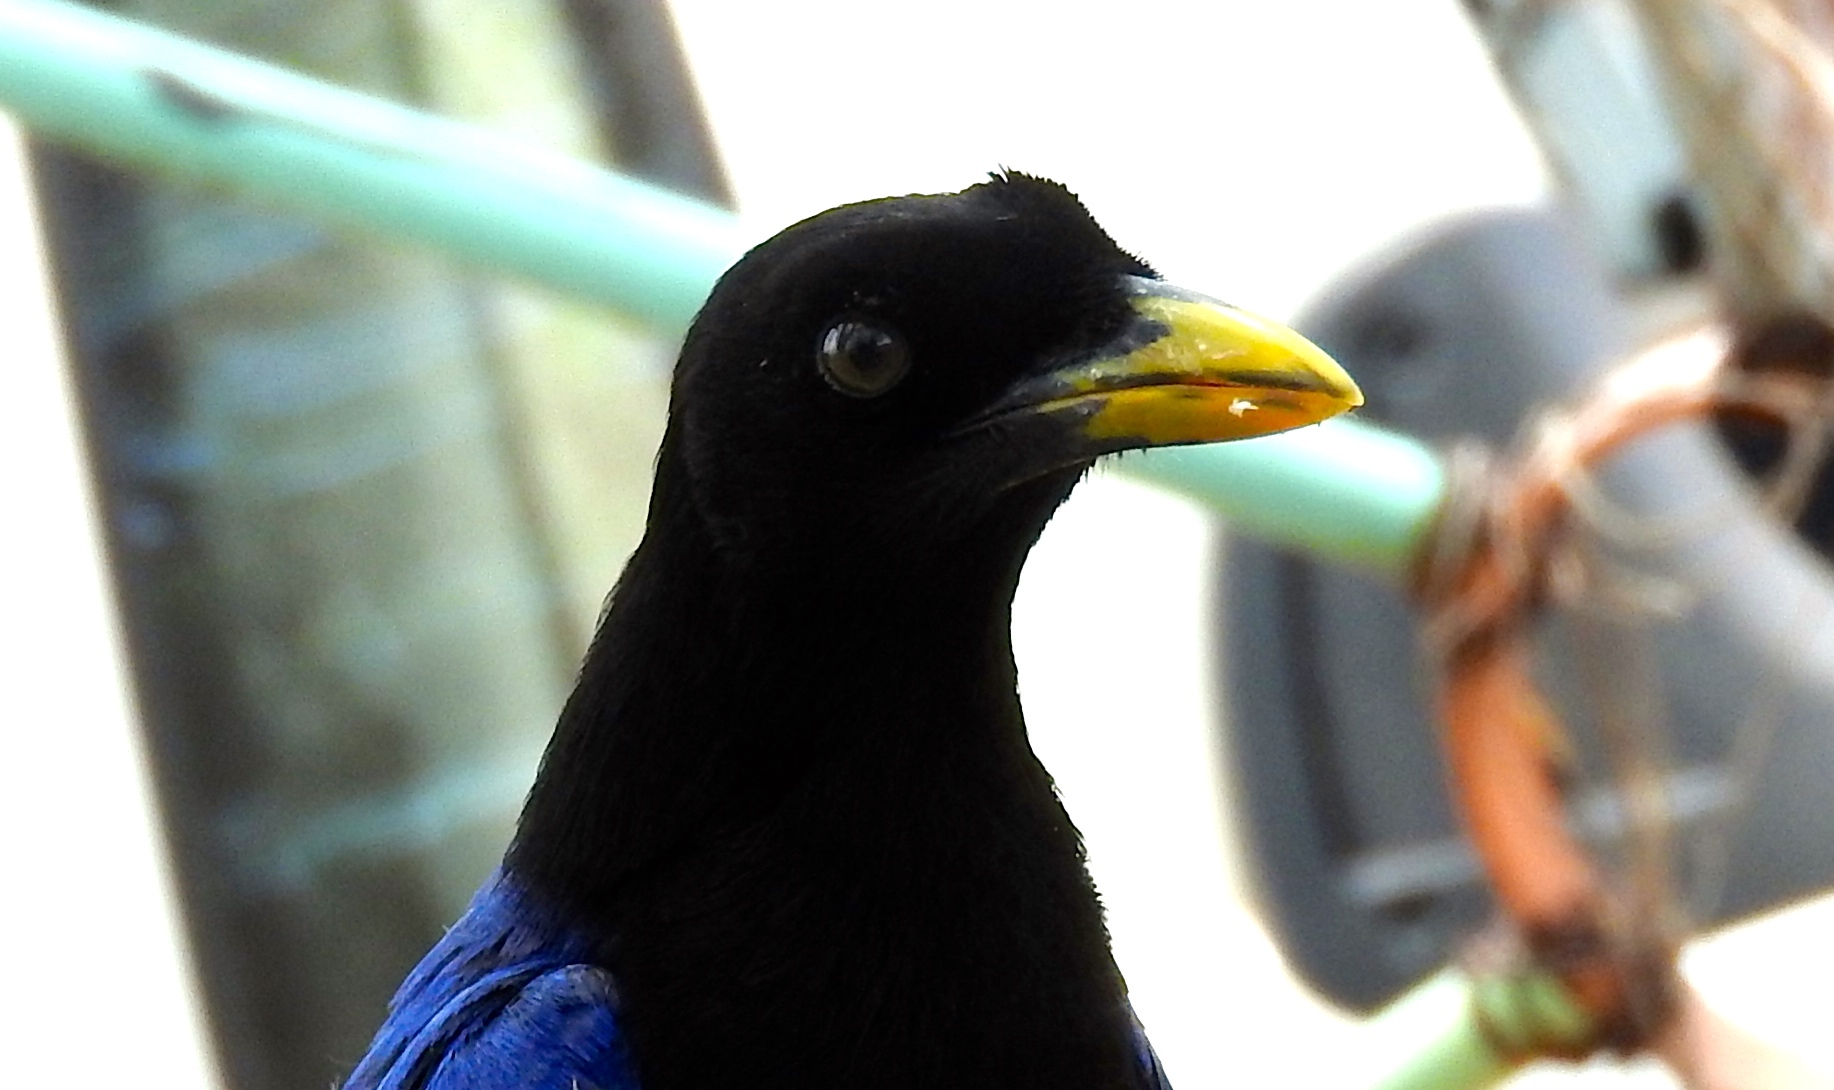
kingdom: Animalia
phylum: Chordata
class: Aves
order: Passeriformes
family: Corvidae
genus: Cyanocorax
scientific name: Cyanocorax beecheii
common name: Purplish-backed jay
